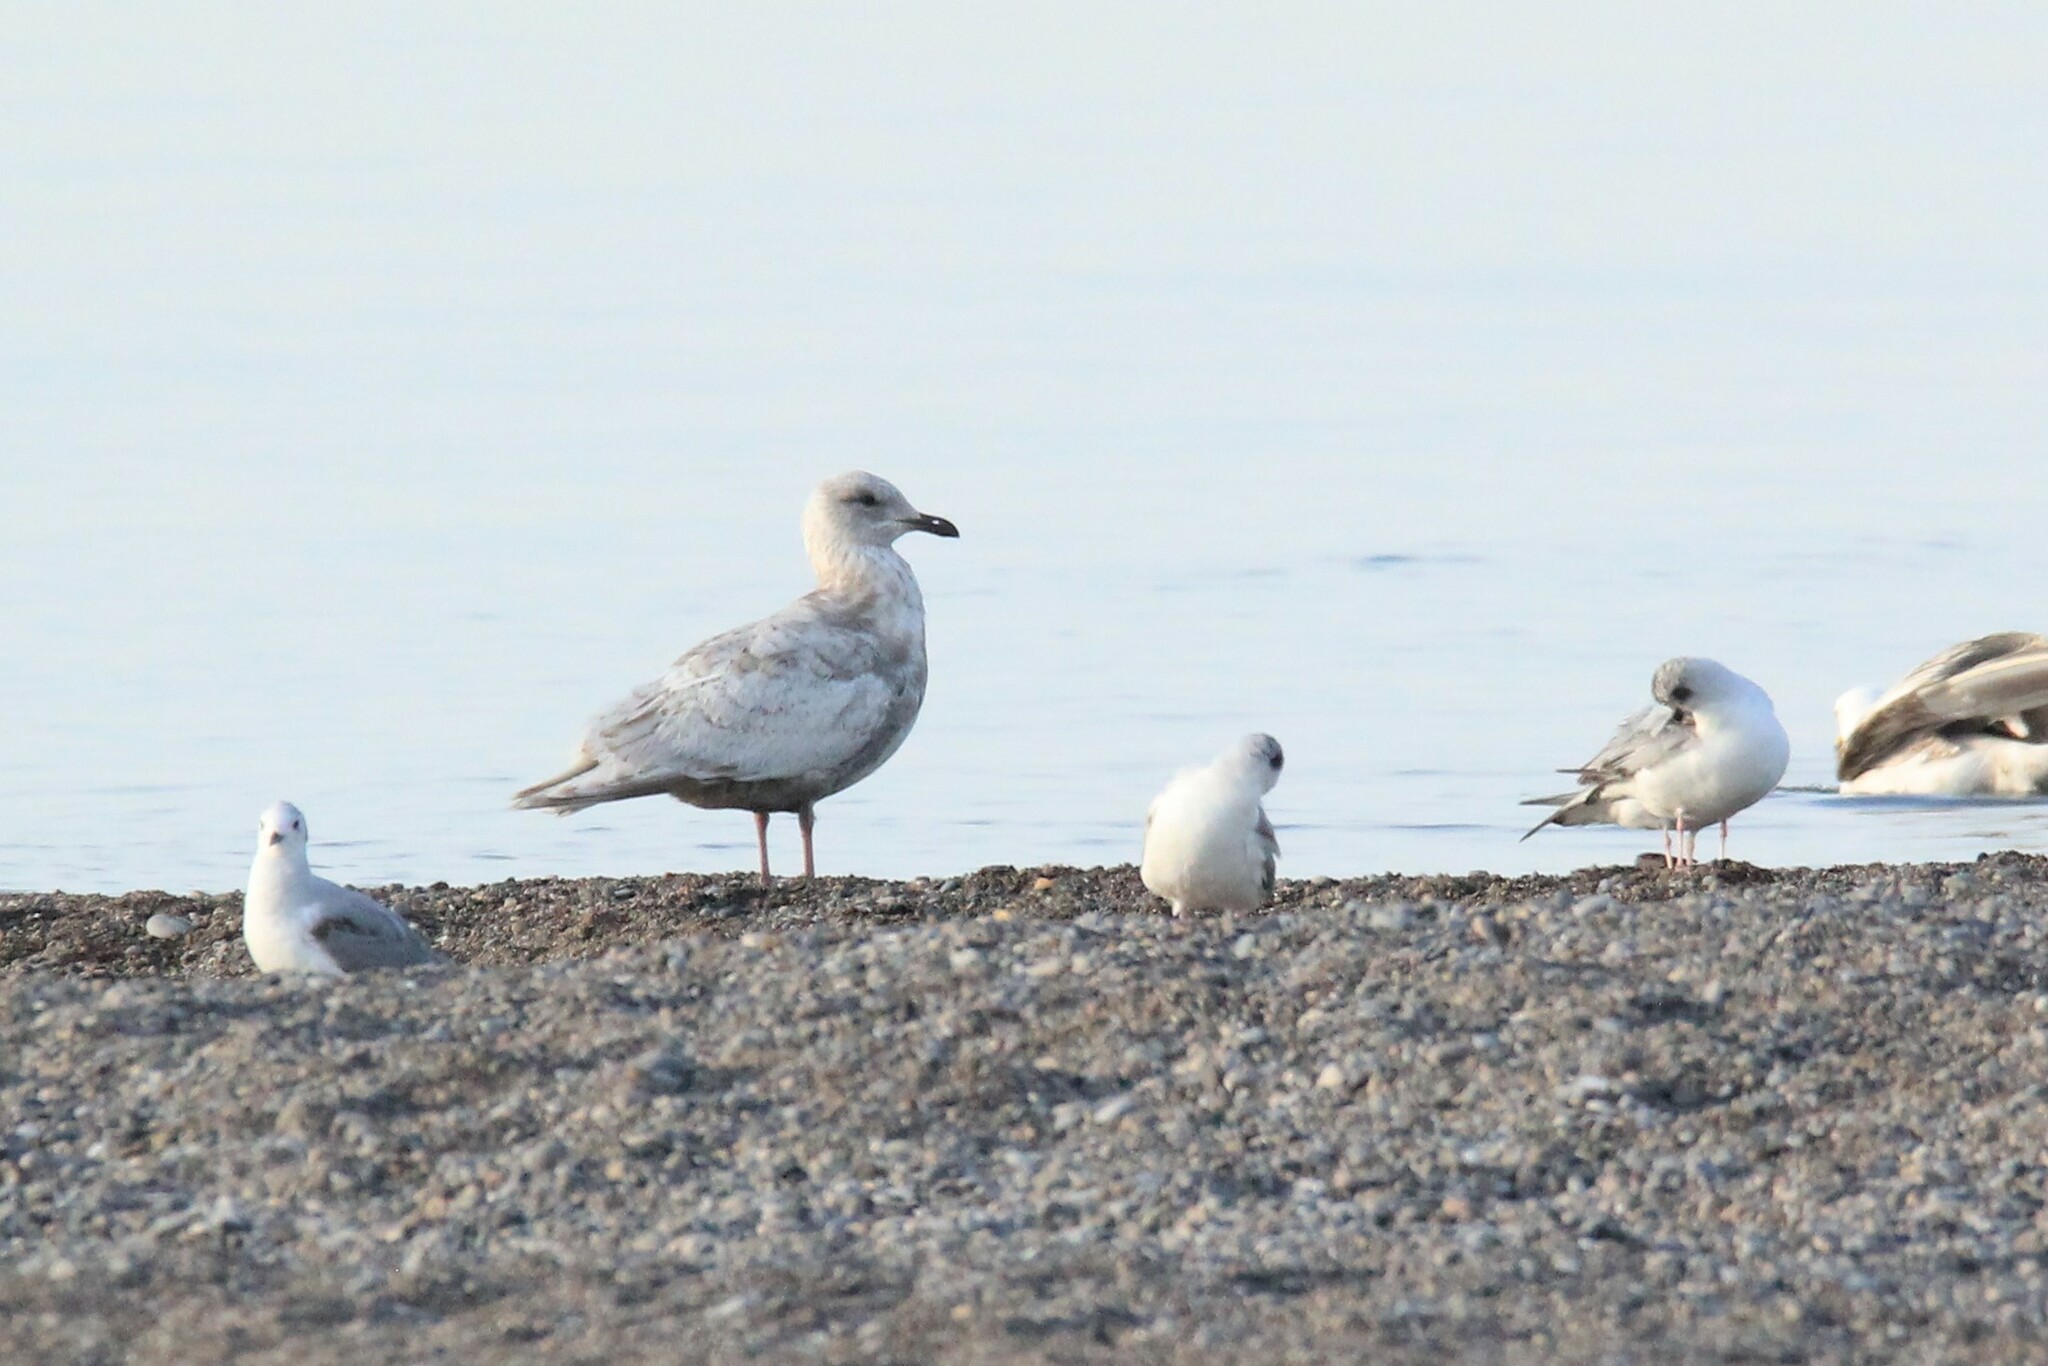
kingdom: Animalia
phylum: Chordata
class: Aves
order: Charadriiformes
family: Laridae
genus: Larus
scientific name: Larus glaucoides
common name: Iceland gull
